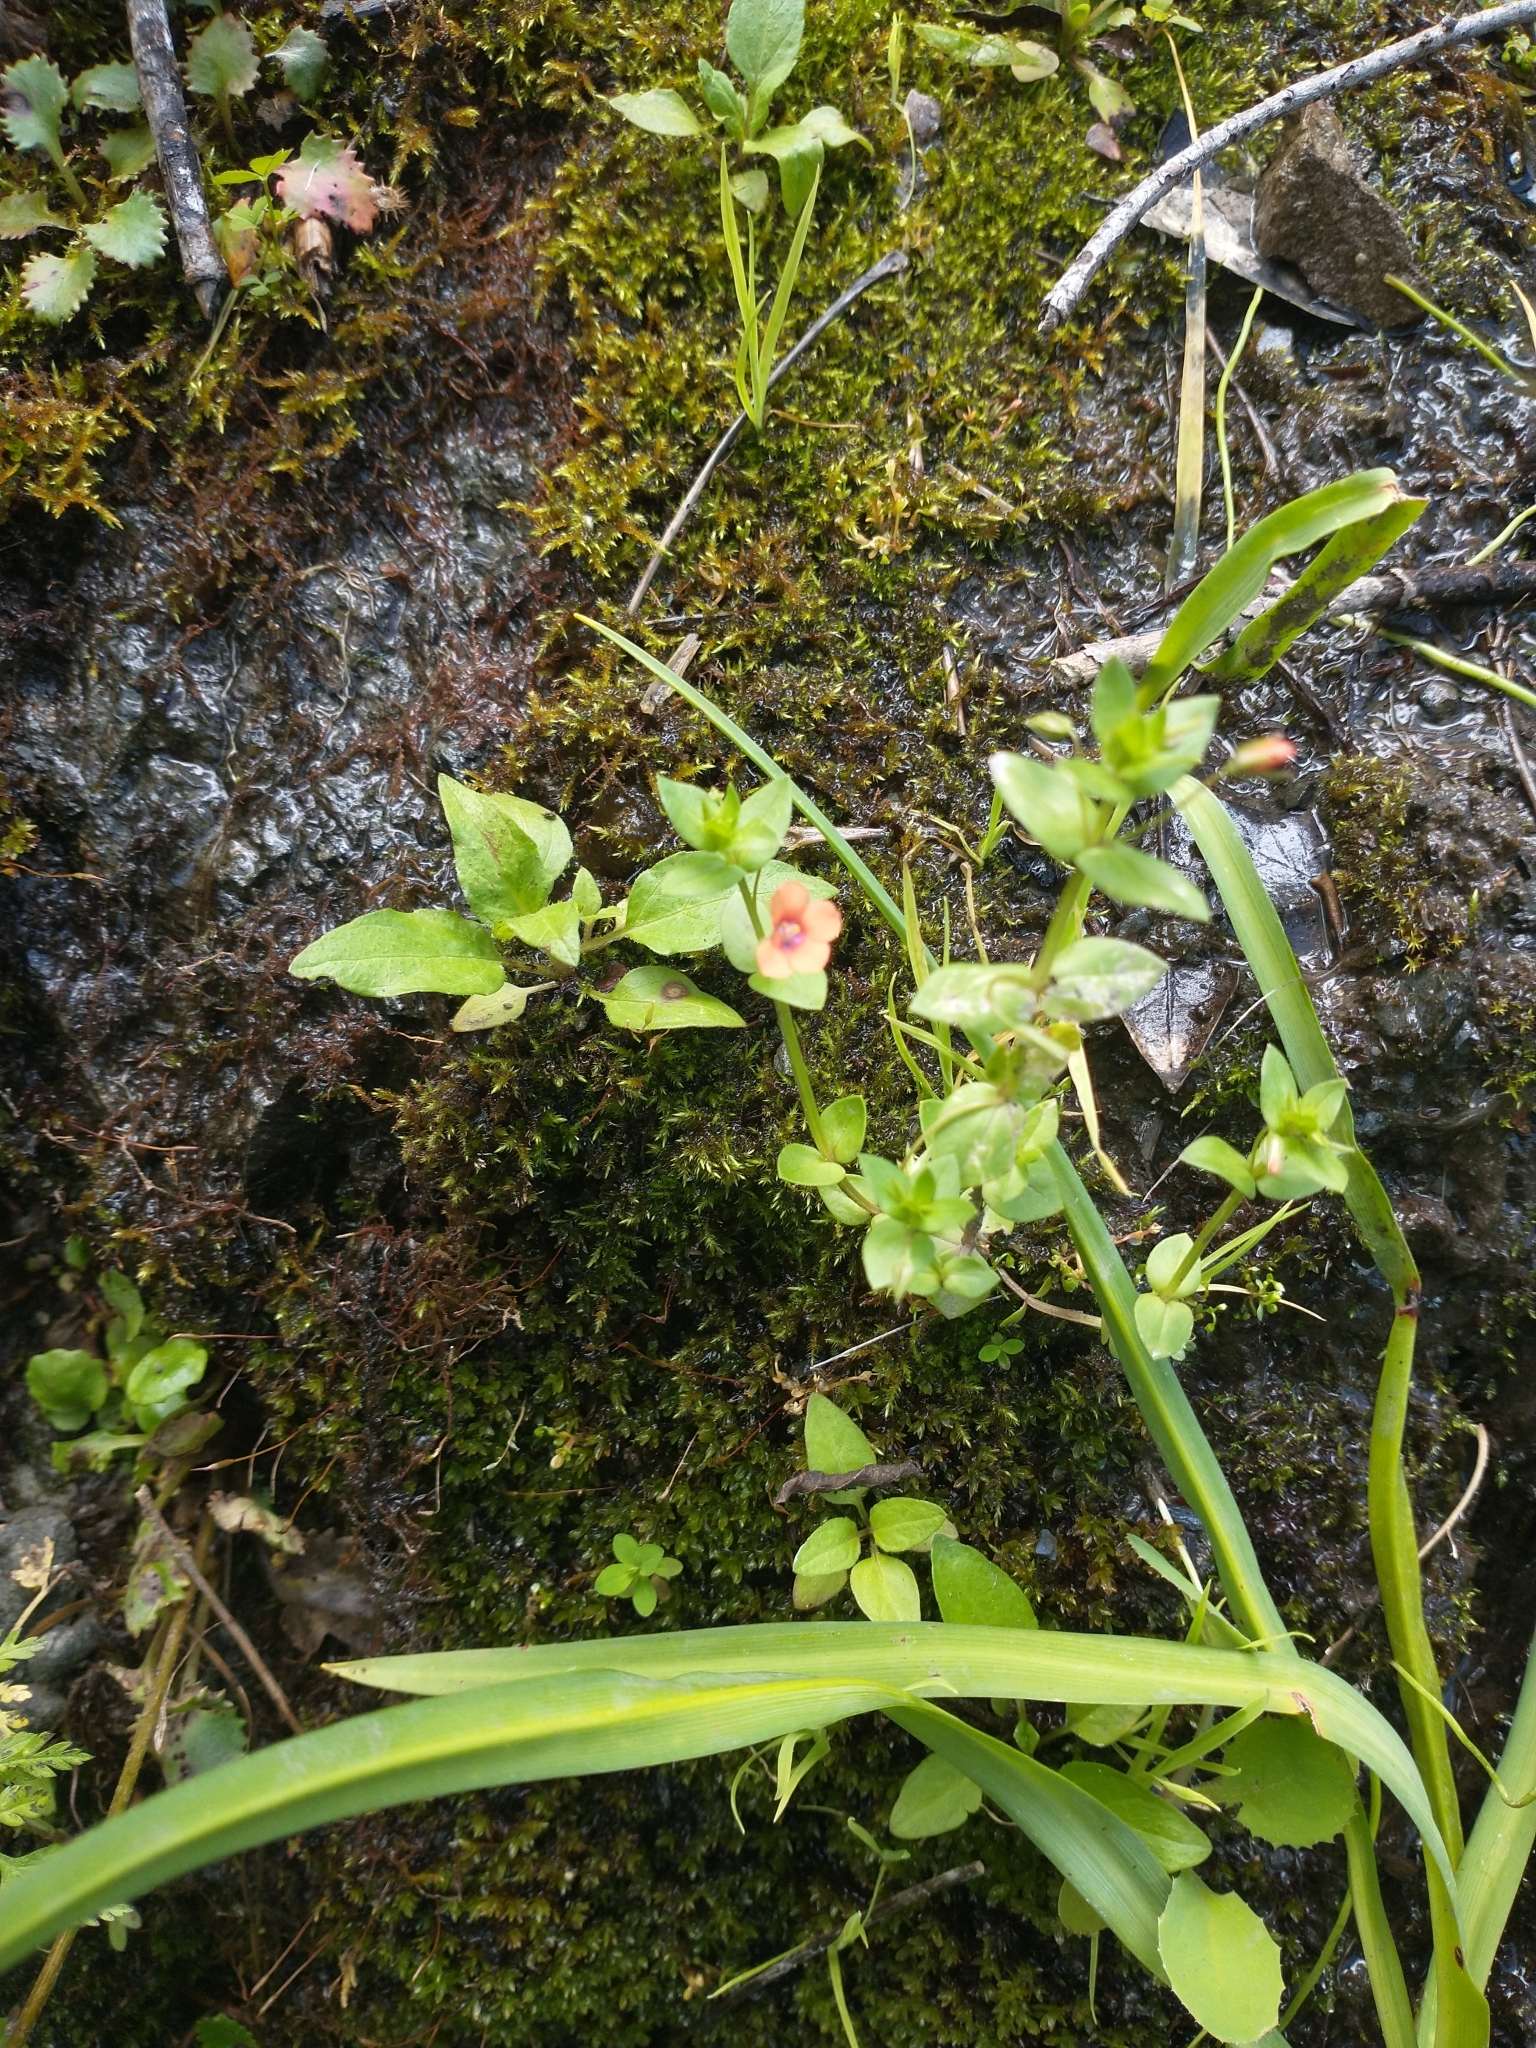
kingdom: Plantae
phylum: Tracheophyta
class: Magnoliopsida
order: Ericales
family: Primulaceae
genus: Lysimachia
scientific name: Lysimachia arvensis
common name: Scarlet pimpernel
